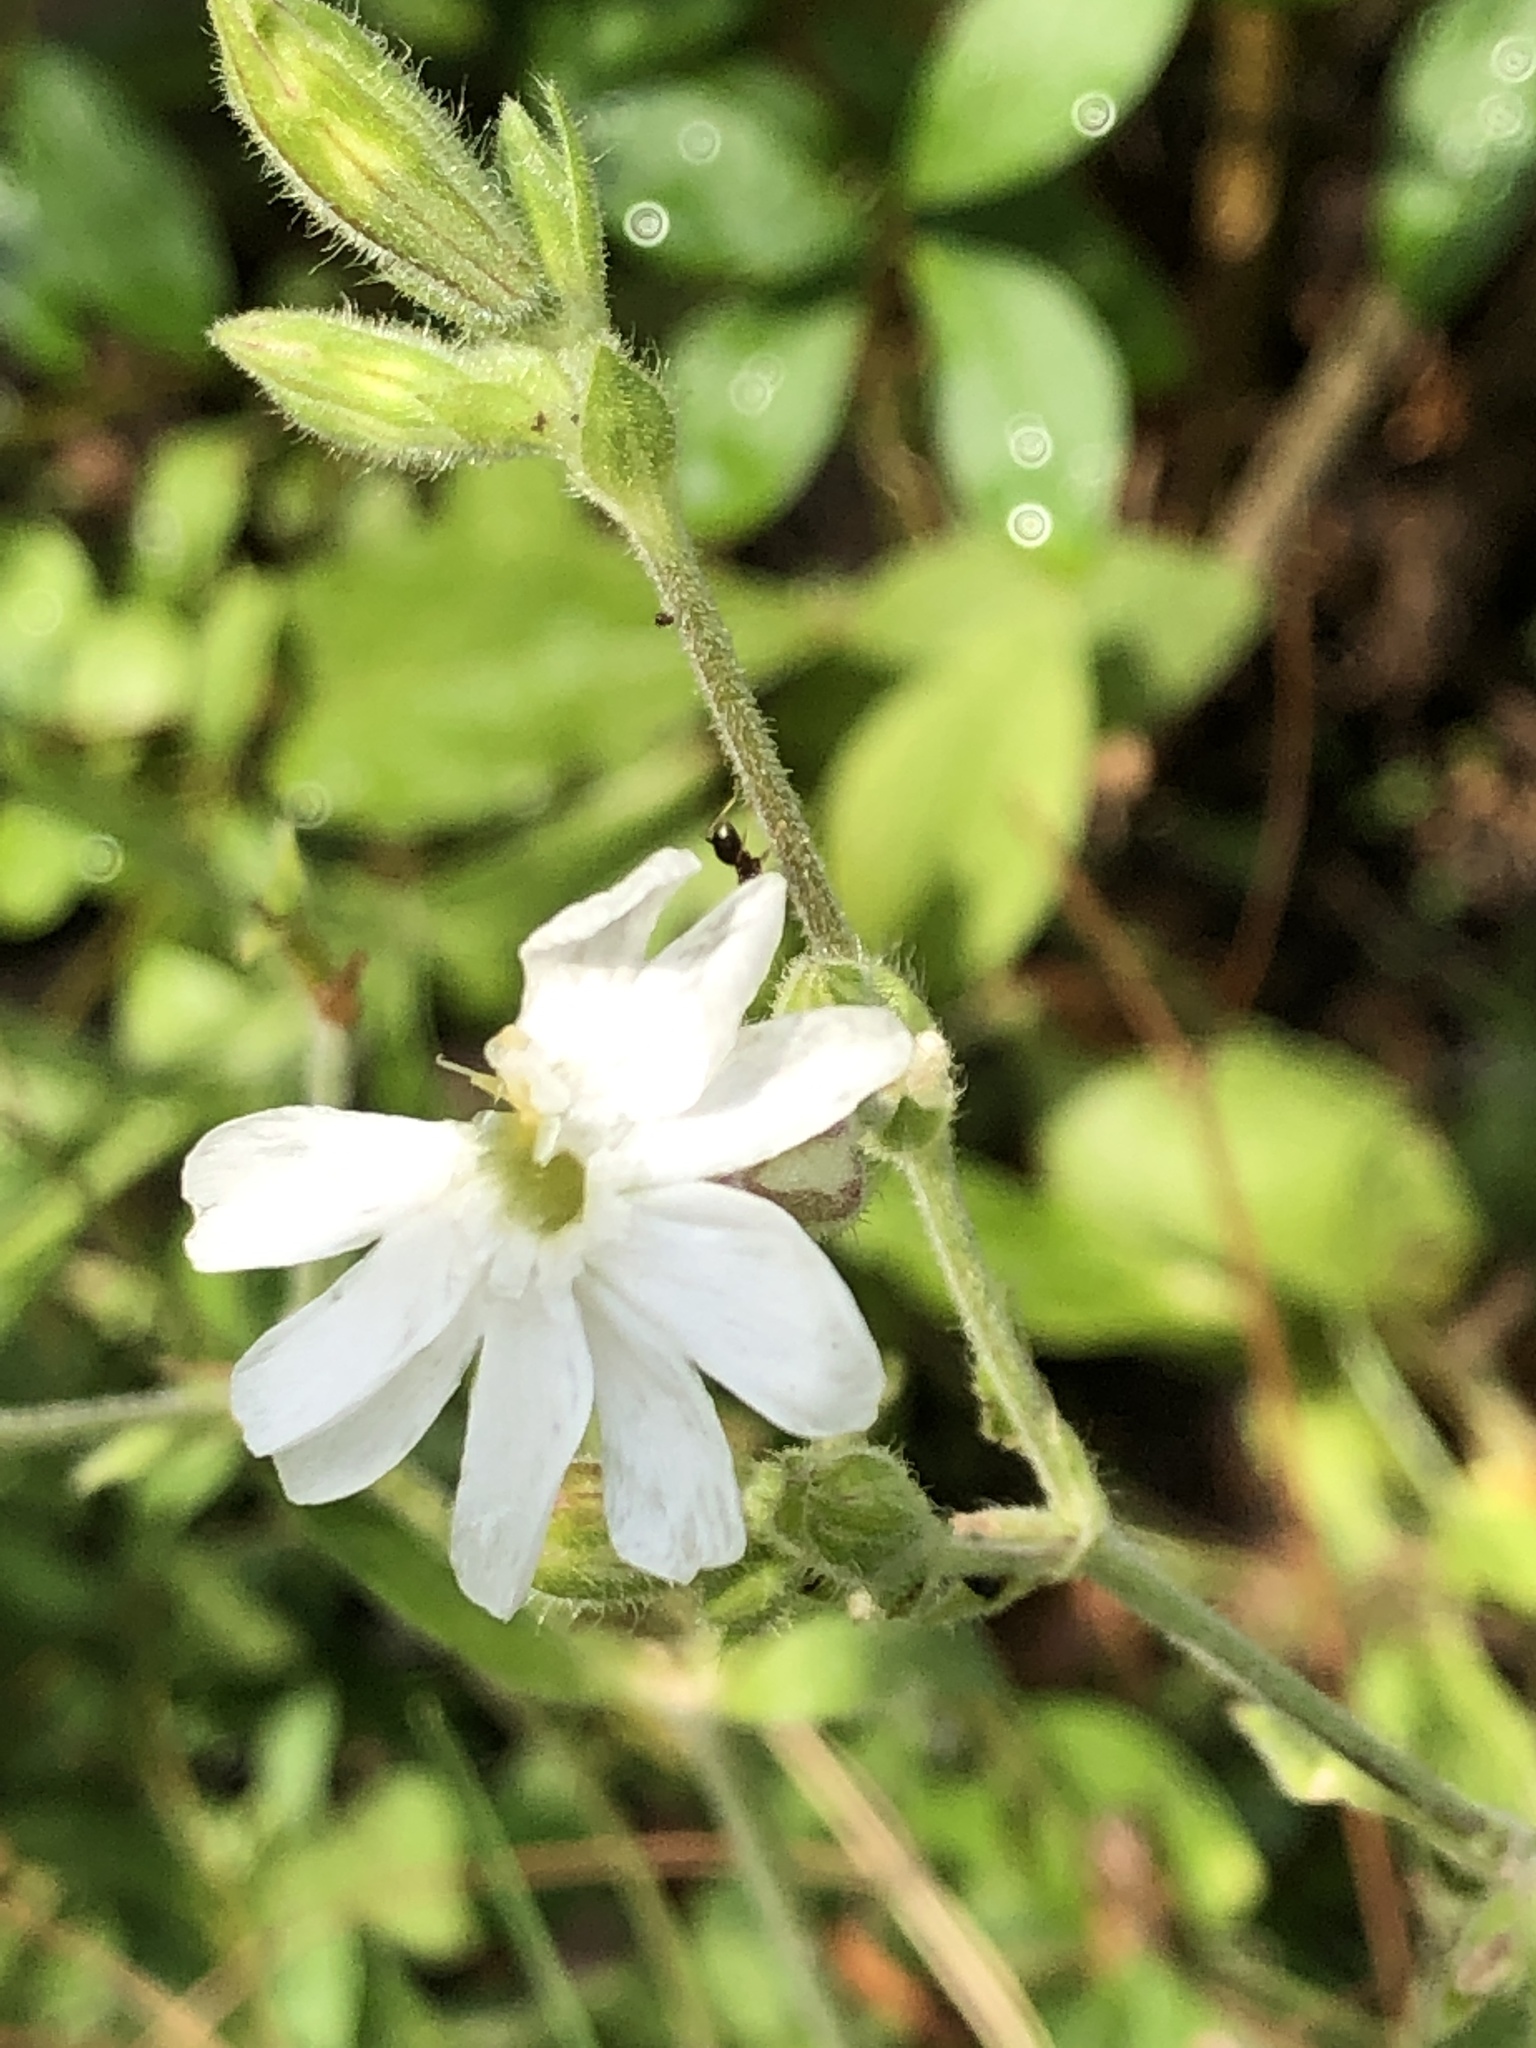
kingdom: Plantae
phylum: Tracheophyta
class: Magnoliopsida
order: Caryophyllales
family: Caryophyllaceae
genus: Silene
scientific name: Silene latifolia
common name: White campion
